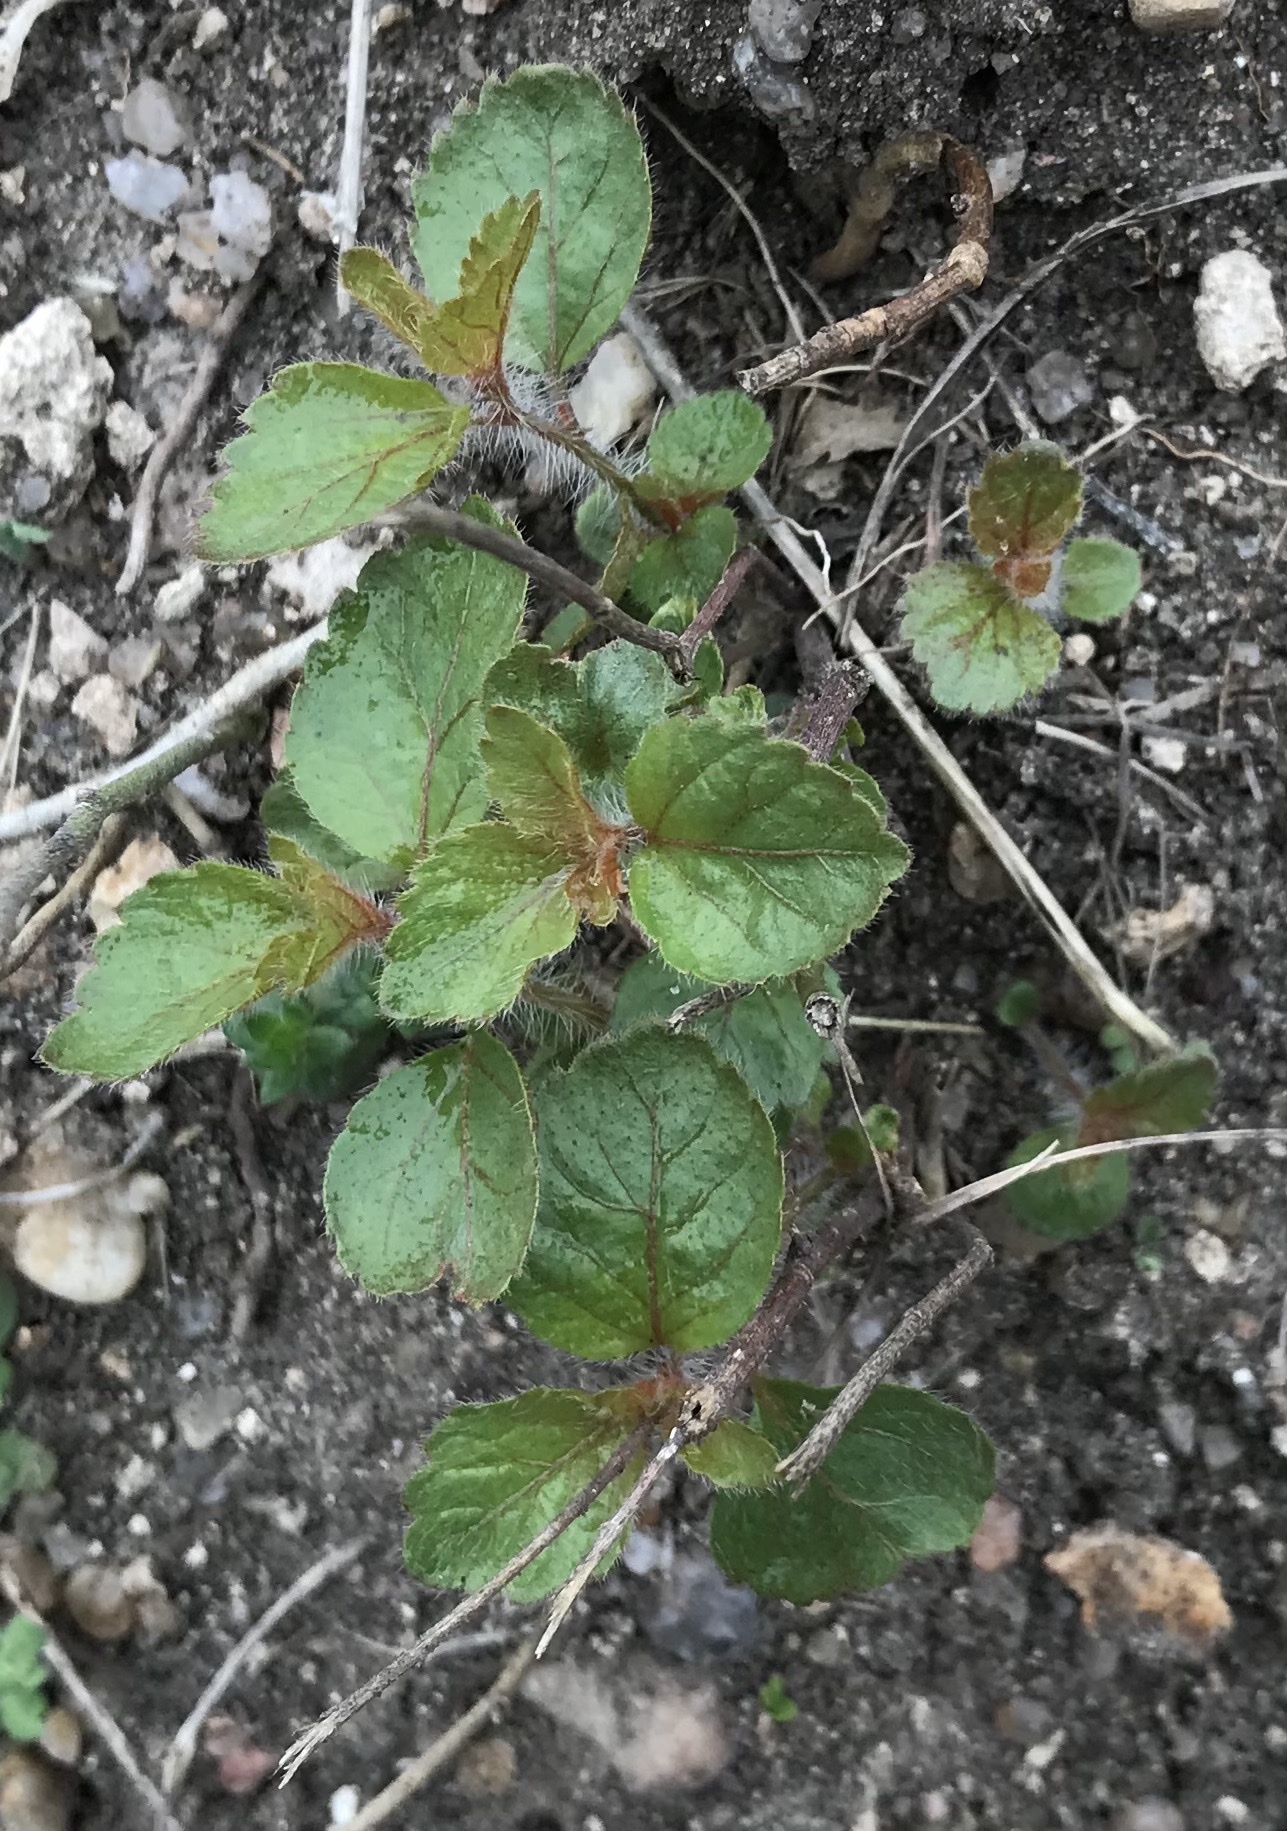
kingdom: Plantae
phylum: Tracheophyta
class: Magnoliopsida
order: Malpighiales
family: Euphorbiaceae
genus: Acalypha
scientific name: Acalypha phleoides
